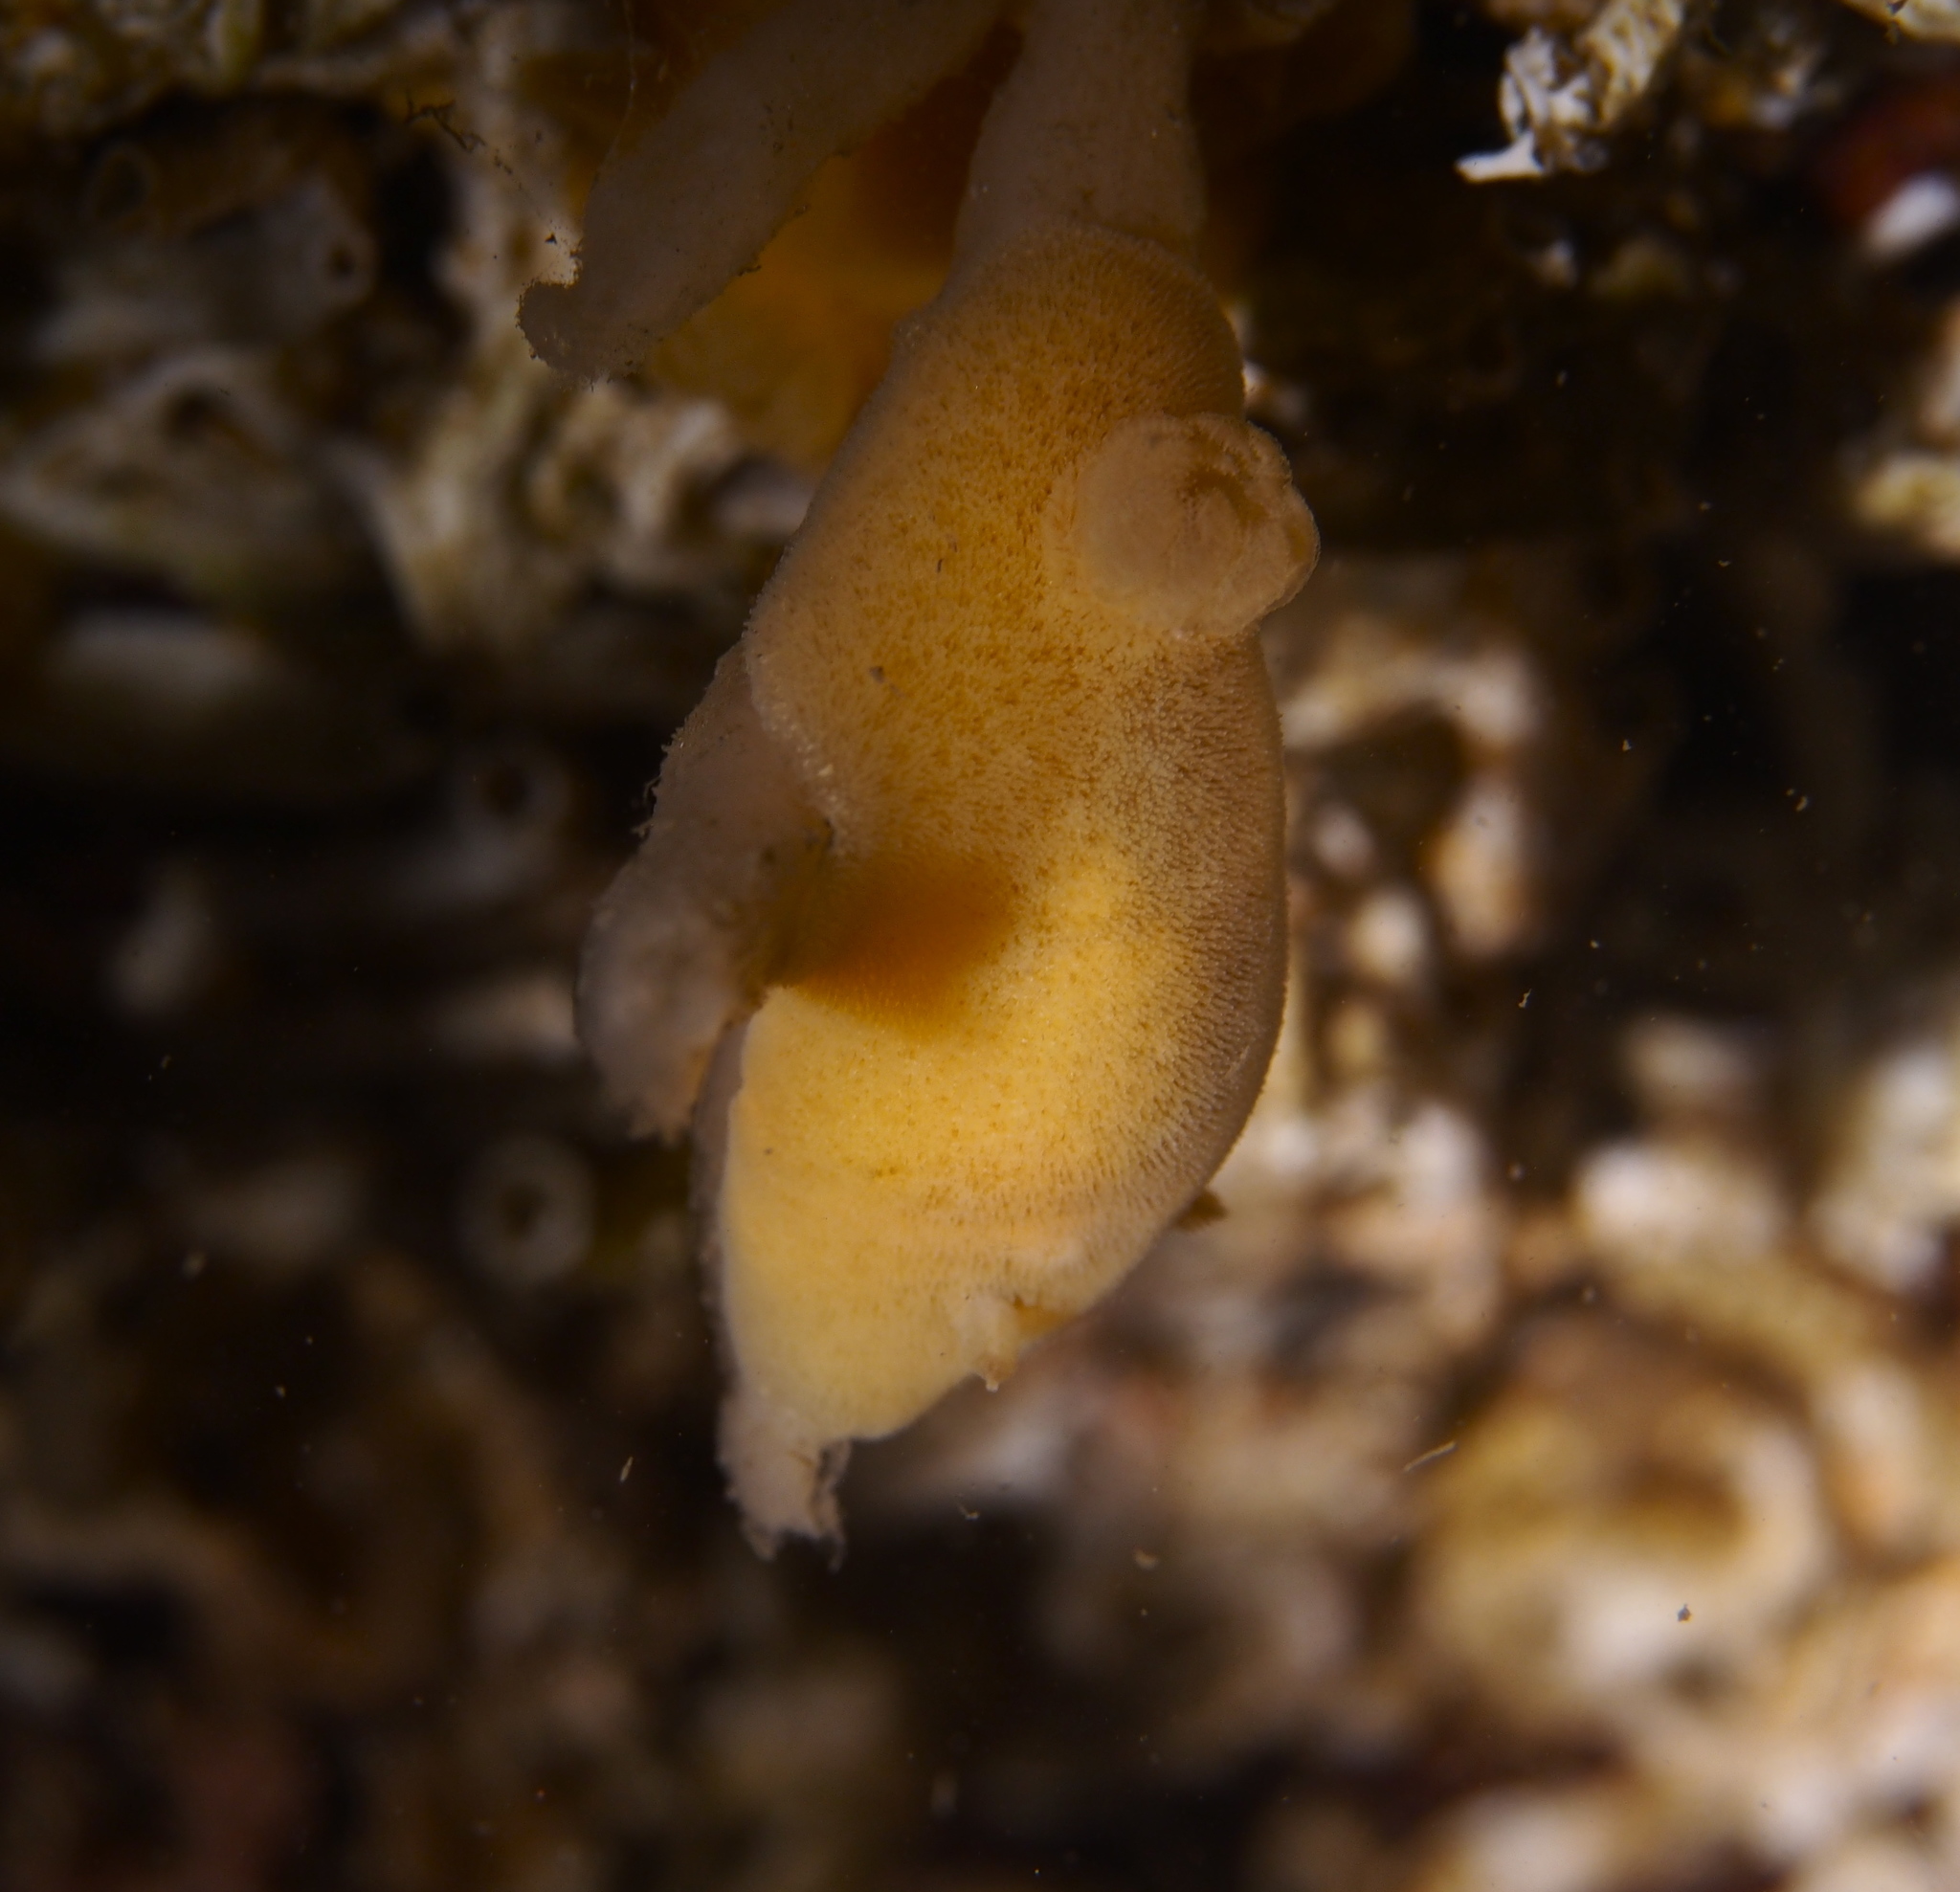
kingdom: Animalia
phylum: Mollusca
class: Gastropoda
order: Nudibranchia
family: Discodorididae
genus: Jorunna
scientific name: Jorunna tomentosa
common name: Grey sea slug
